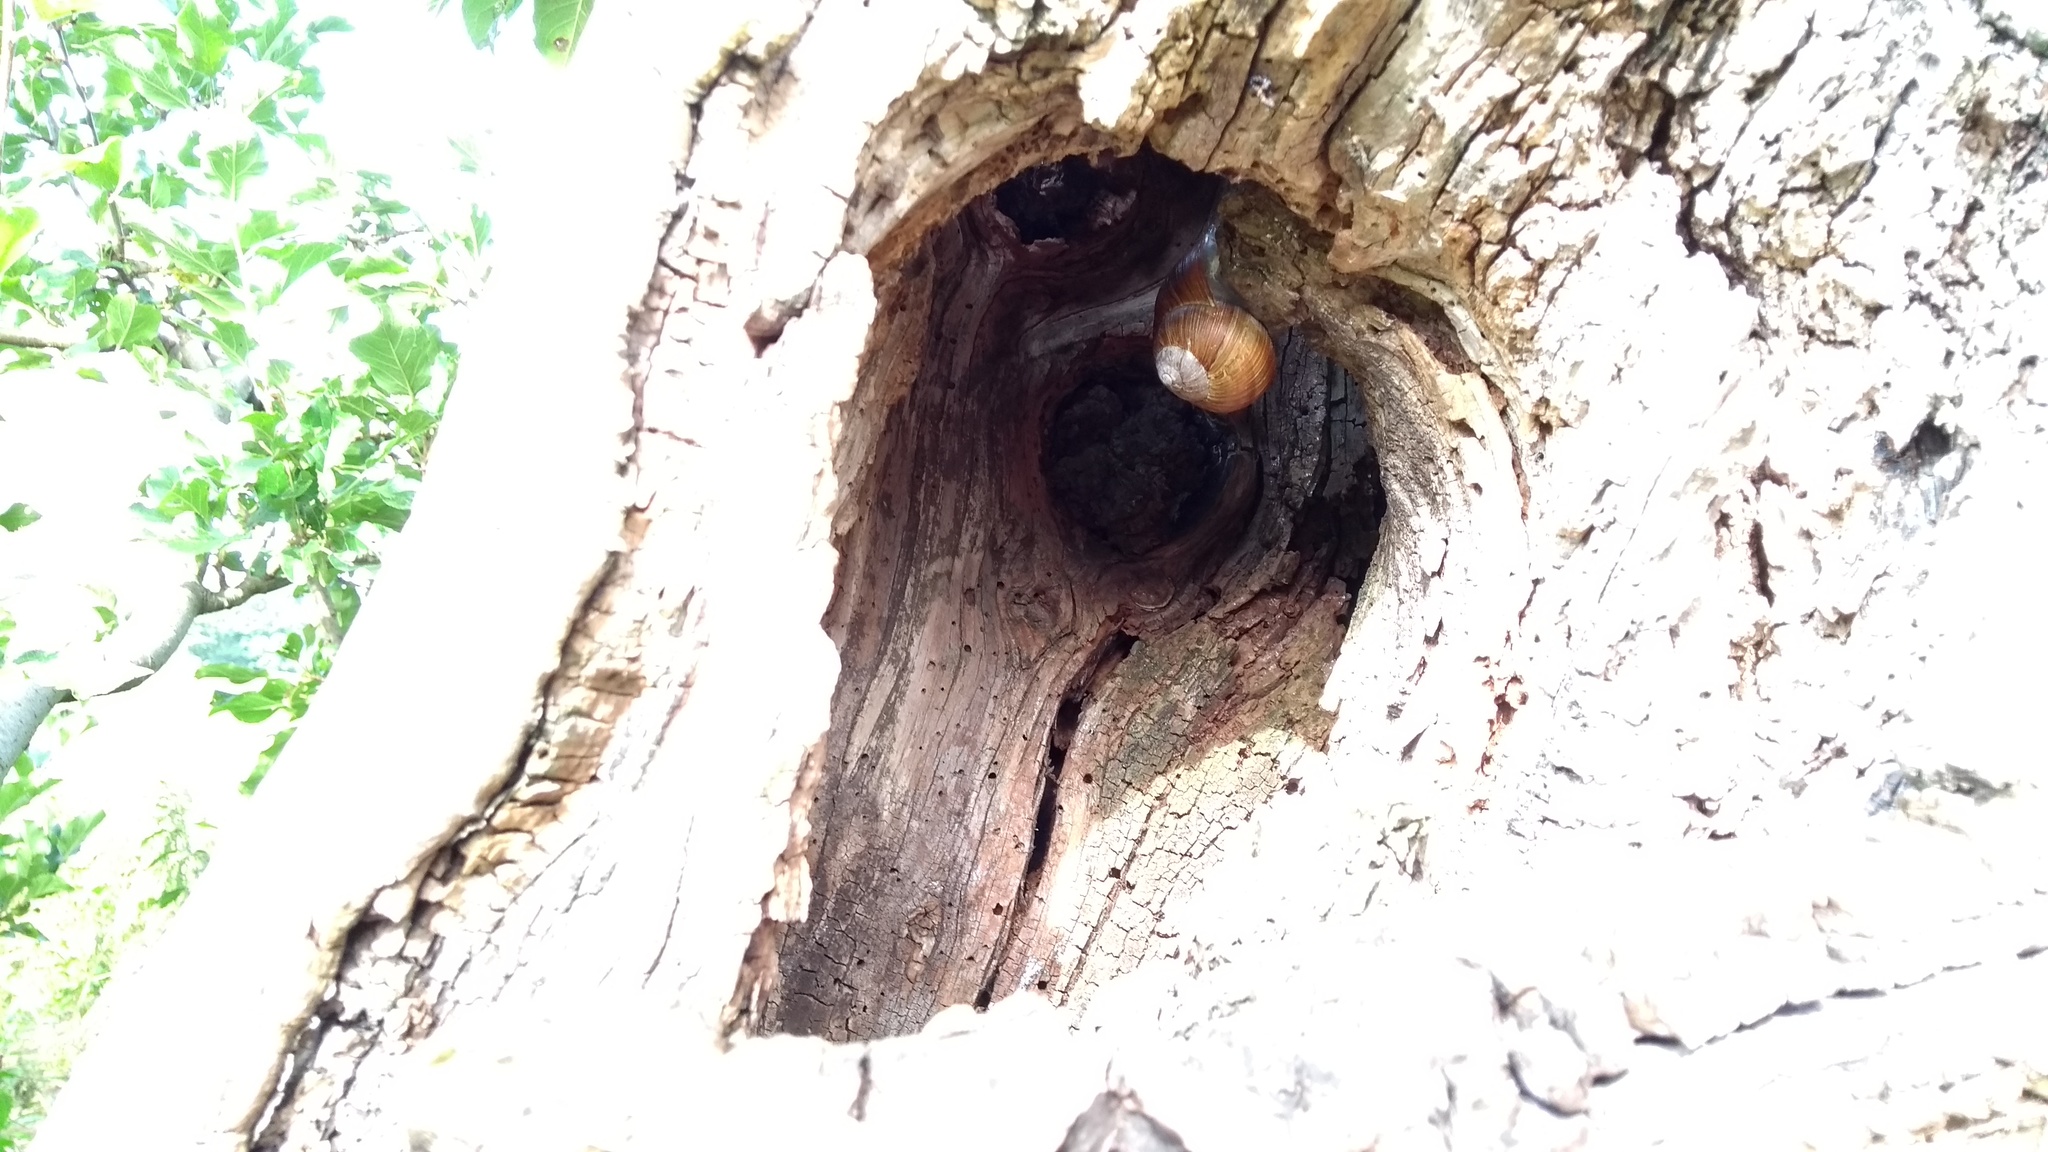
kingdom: Animalia
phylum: Mollusca
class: Gastropoda
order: Stylommatophora
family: Helicidae
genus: Helix
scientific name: Helix pomatia
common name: Roman snail
